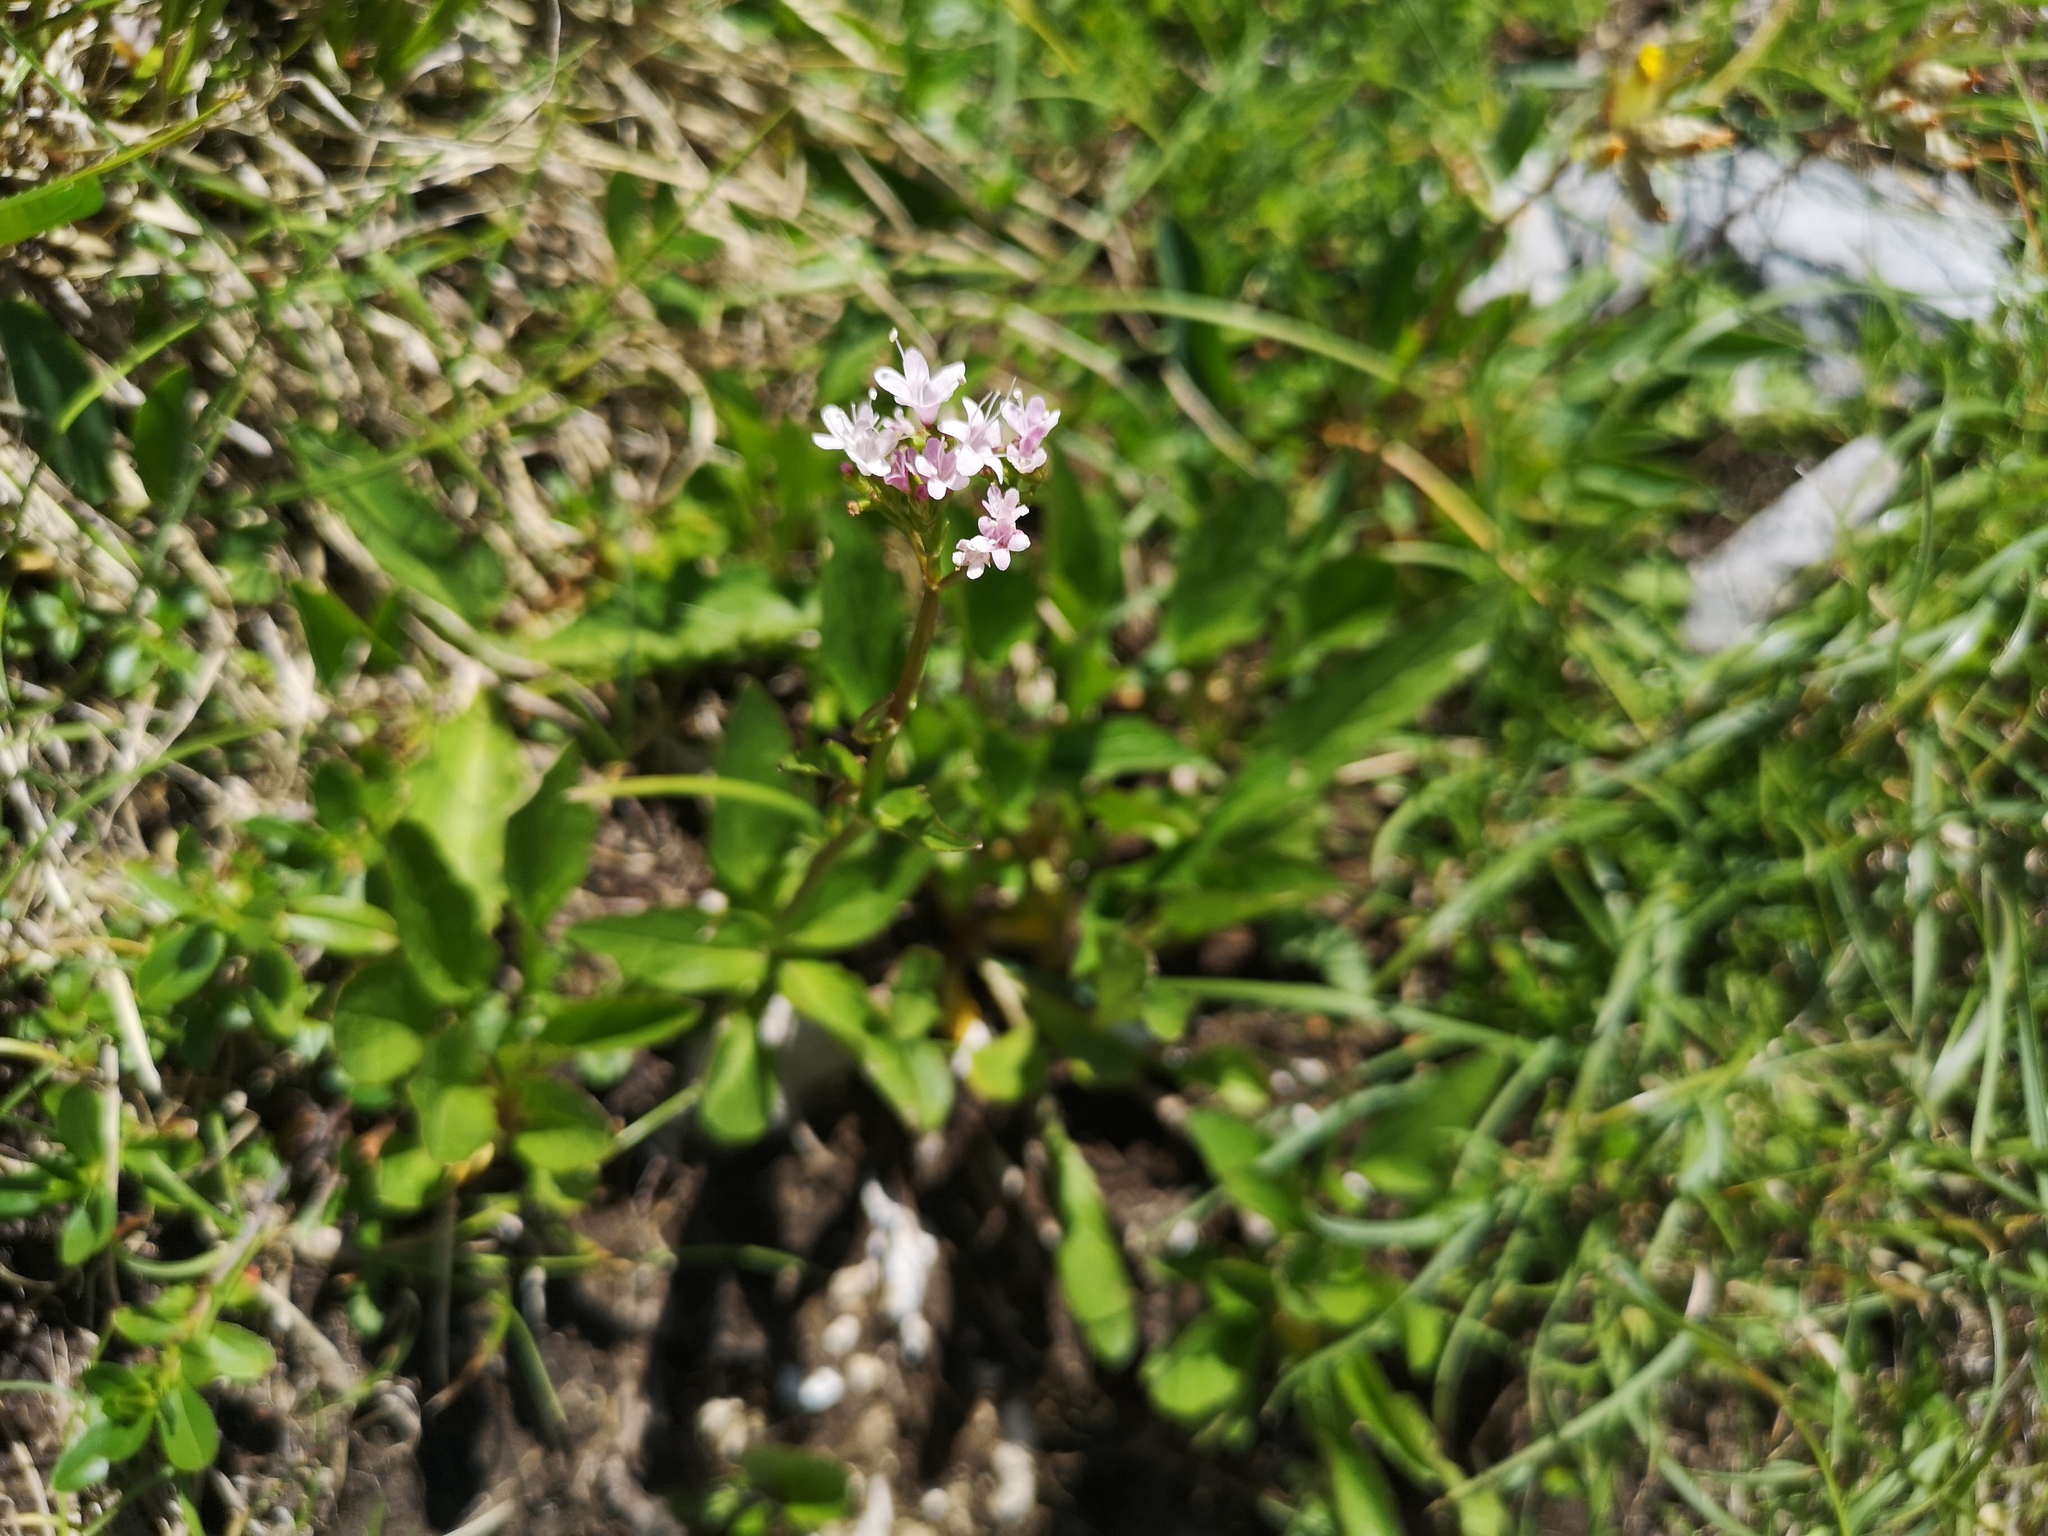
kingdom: Plantae
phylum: Tracheophyta
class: Magnoliopsida
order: Dipsacales
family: Caprifoliaceae
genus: Valeriana
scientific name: Valeriana montana
